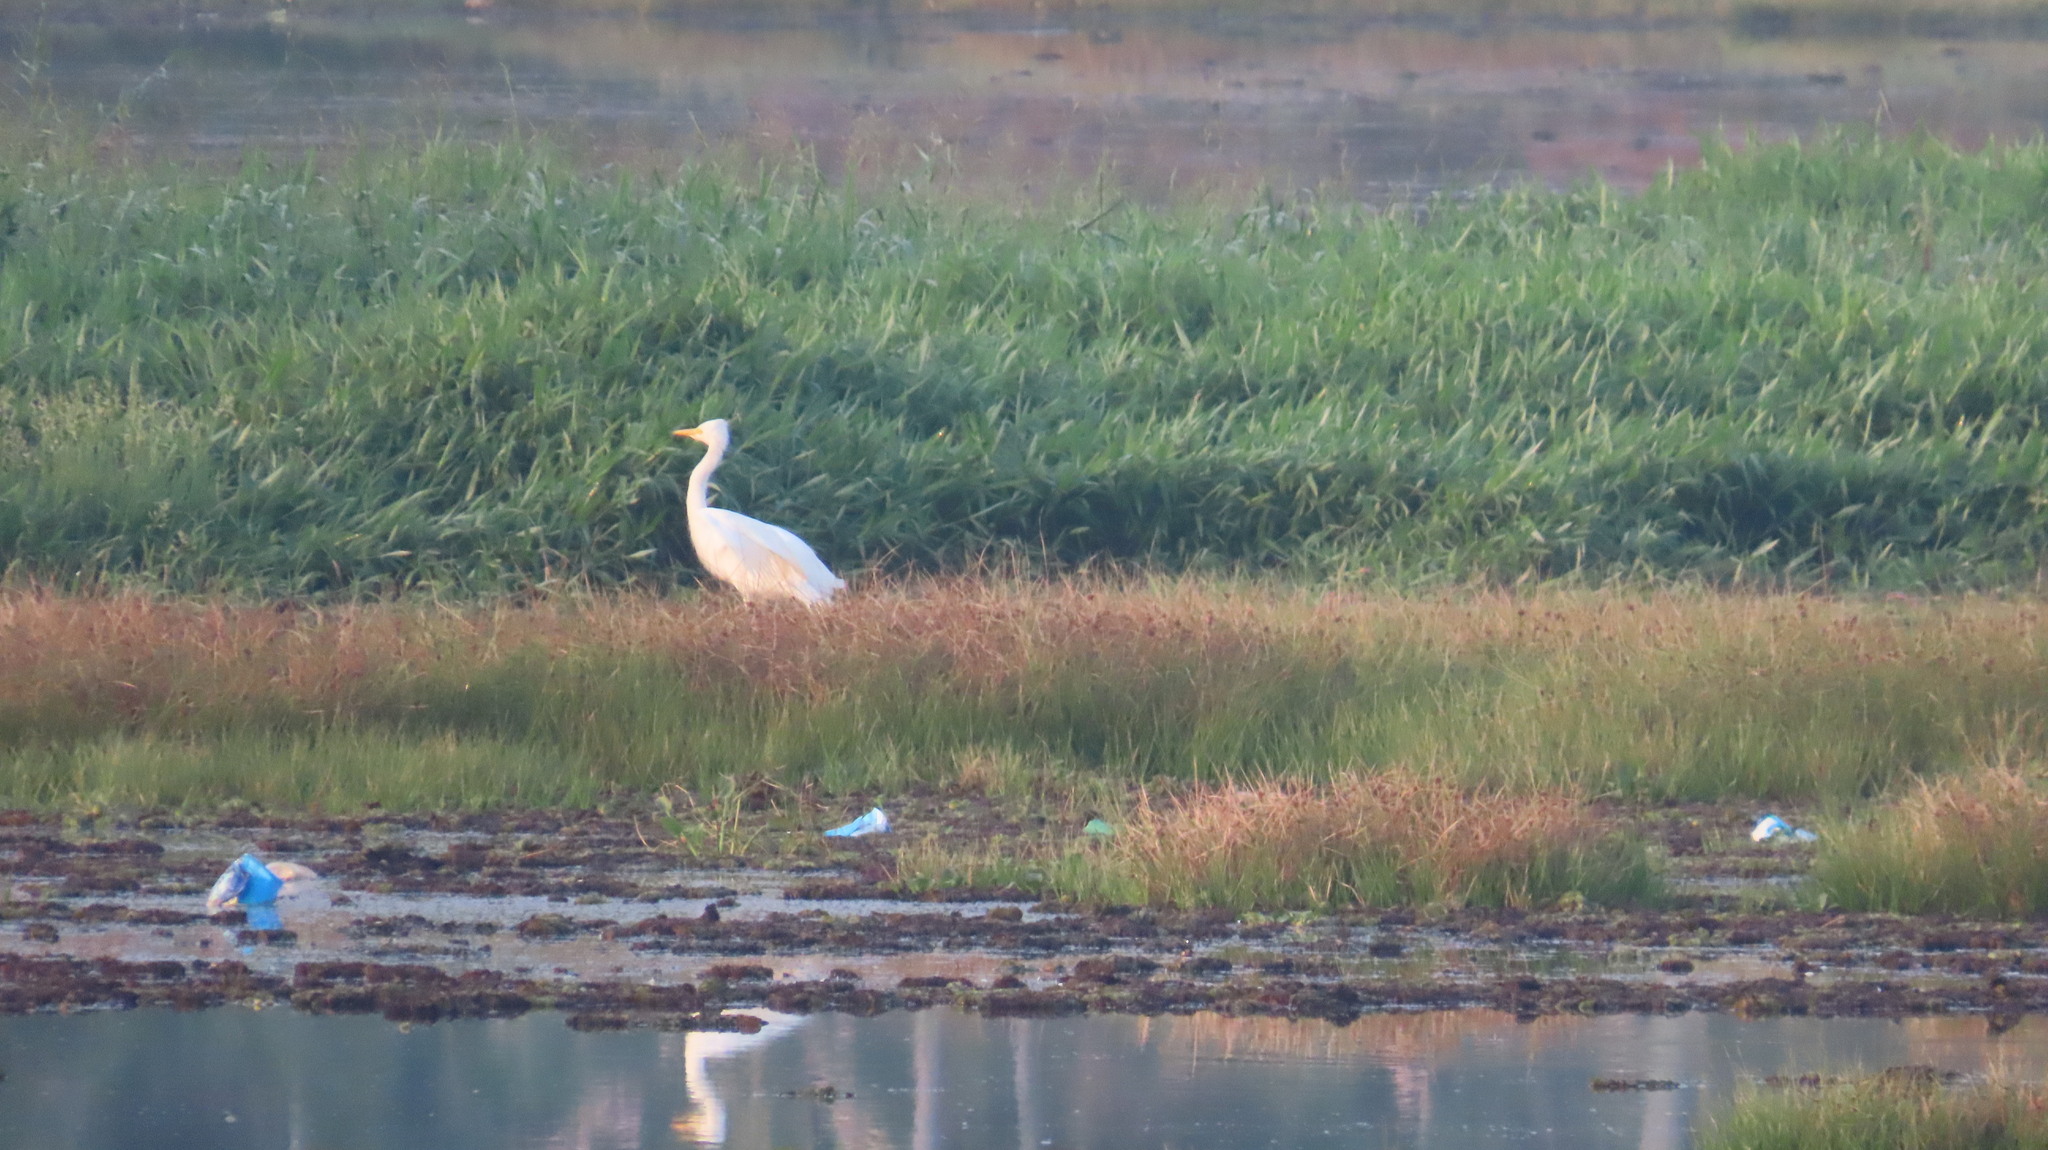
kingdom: Animalia
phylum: Chordata
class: Aves
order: Pelecaniformes
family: Ardeidae
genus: Egretta
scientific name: Egretta intermedia
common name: Intermediate egret
